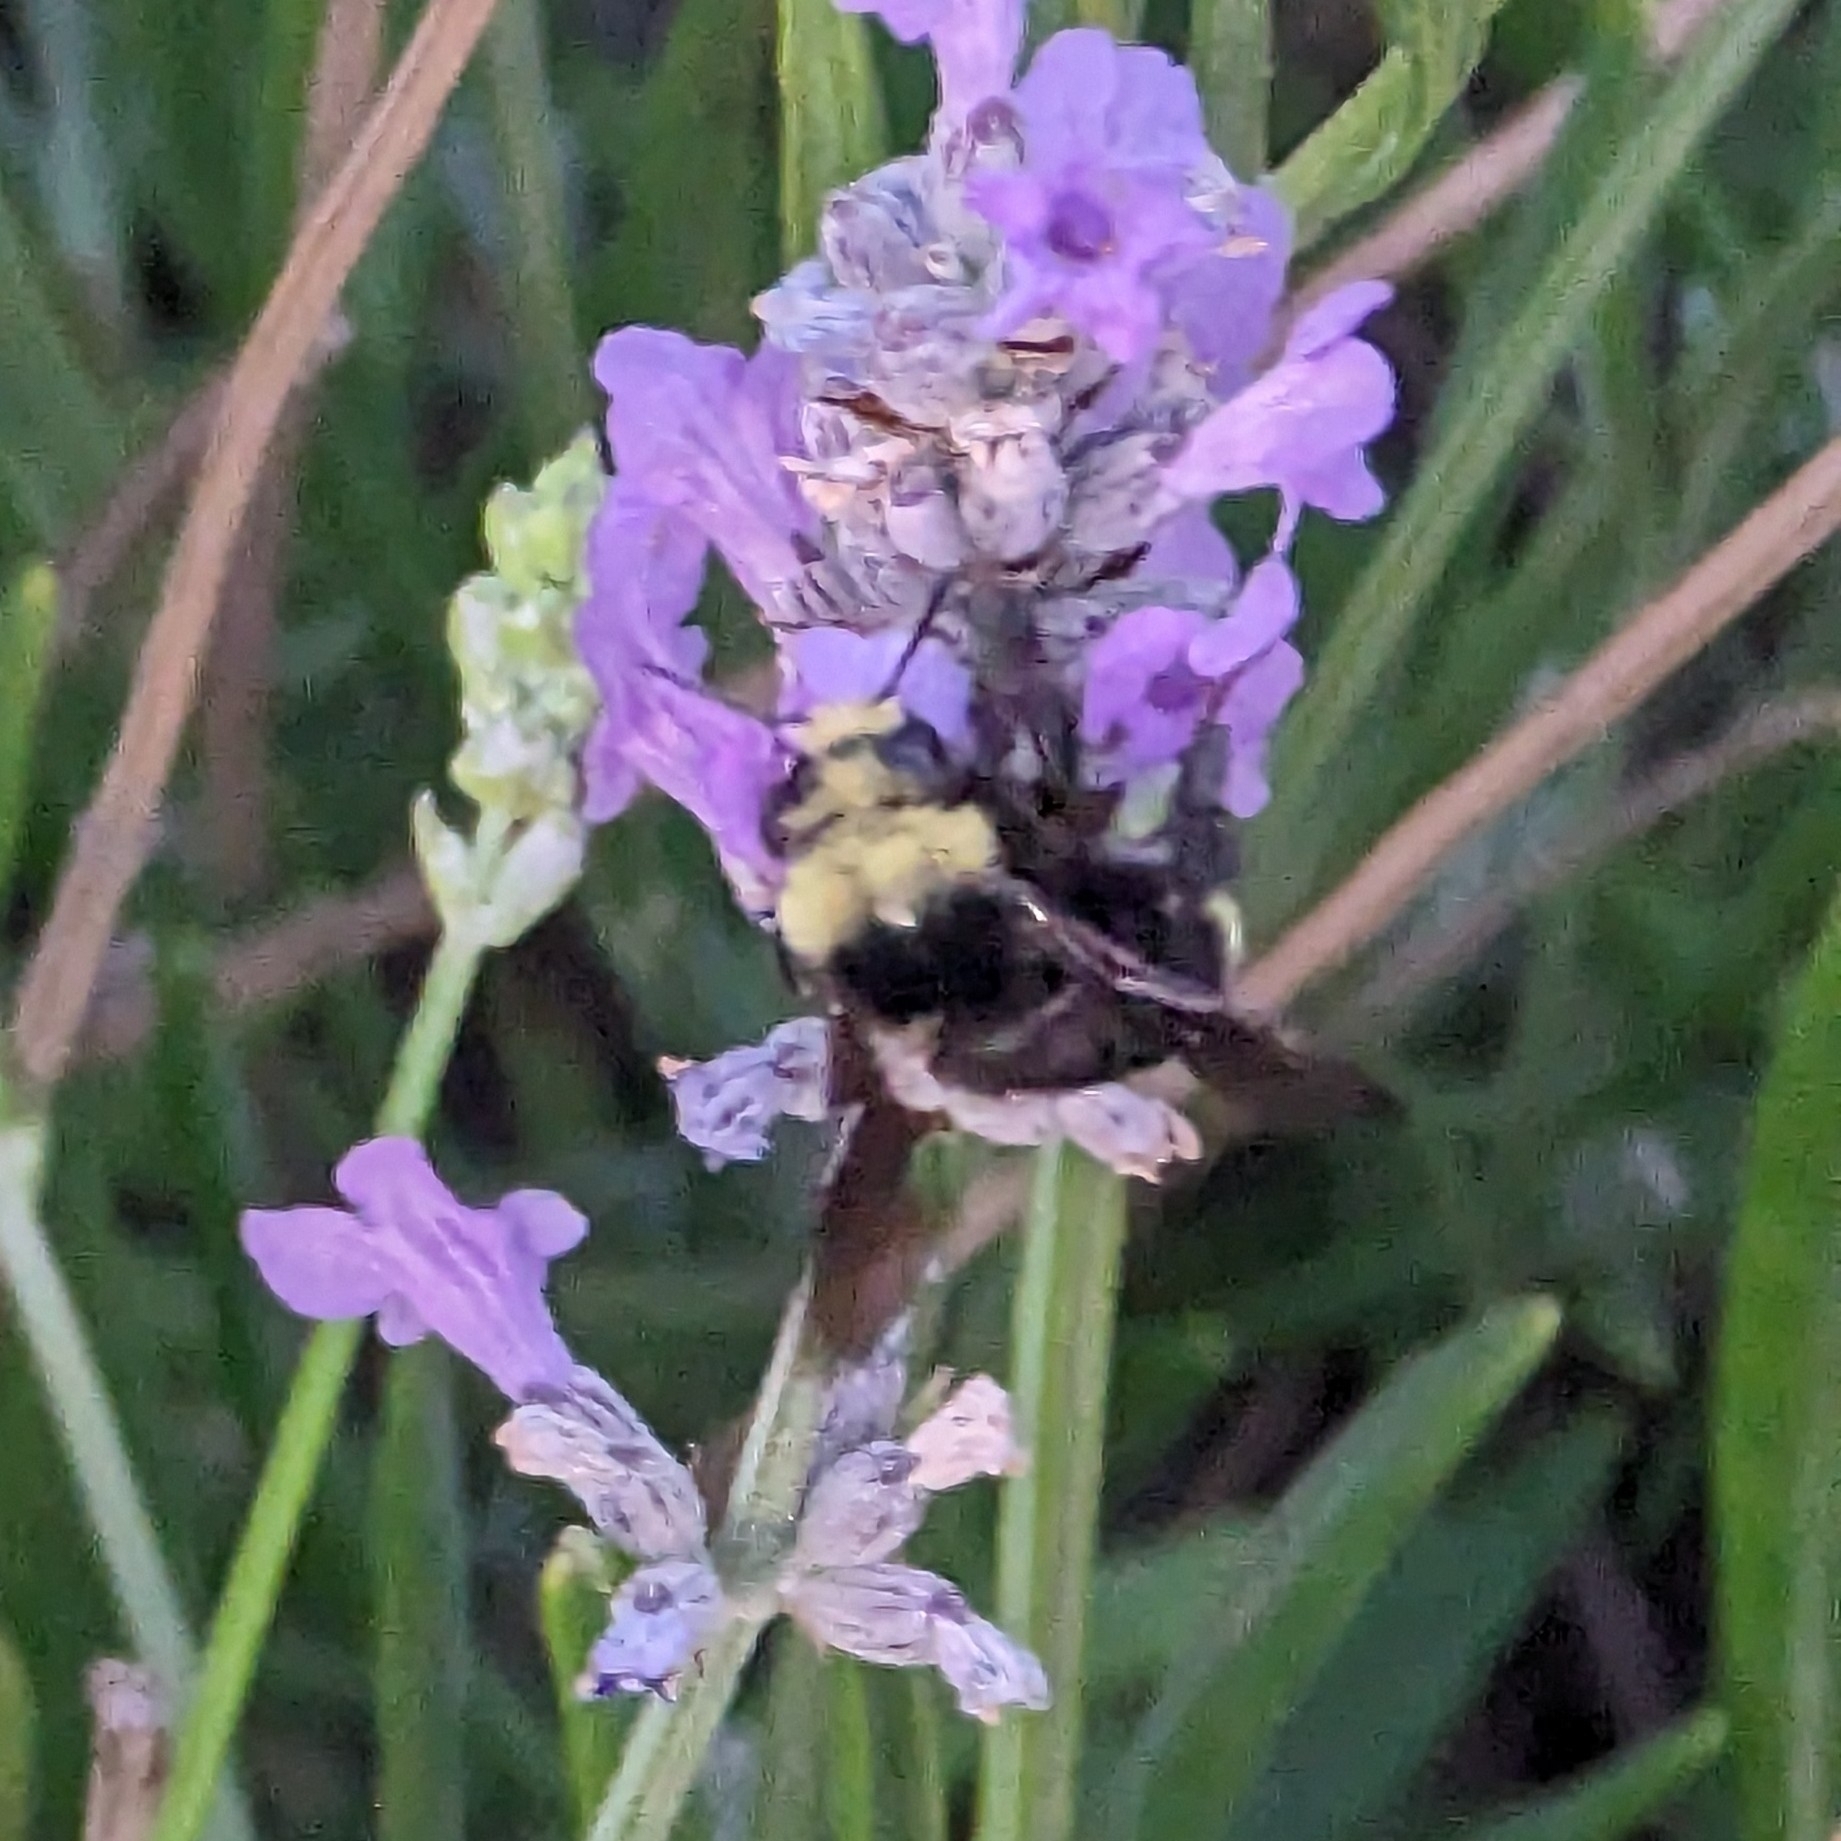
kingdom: Animalia
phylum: Arthropoda
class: Insecta
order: Hymenoptera
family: Apidae
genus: Bombus
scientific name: Bombus vosnesenskii
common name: Vosnesensky bumble bee
